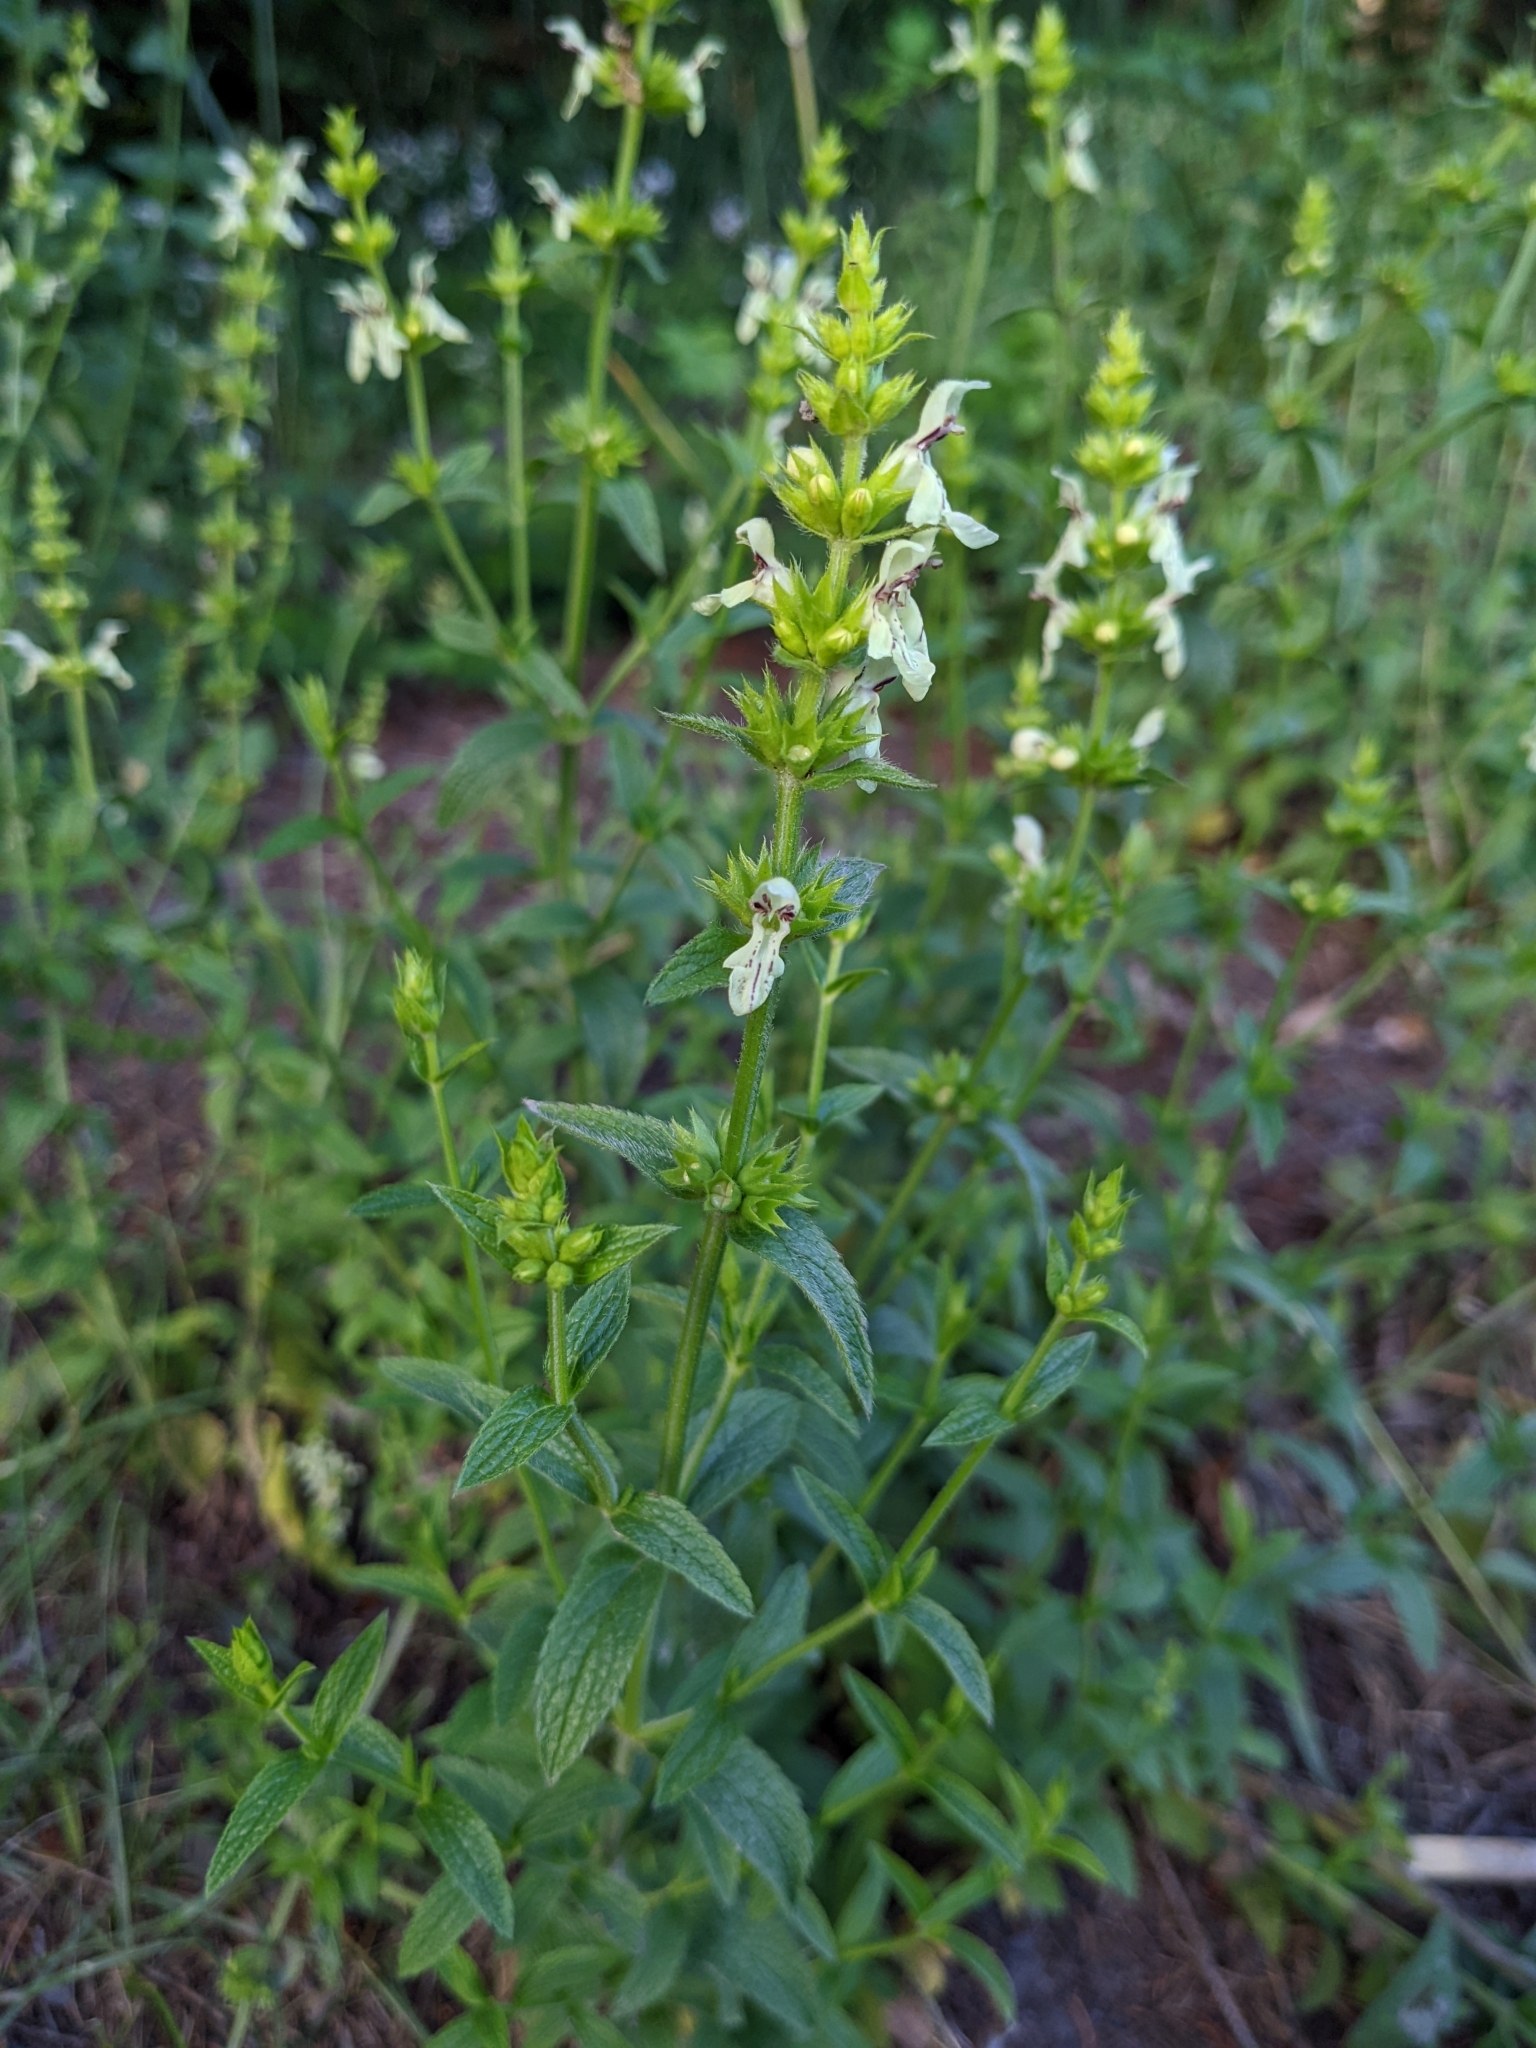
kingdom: Plantae
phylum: Tracheophyta
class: Magnoliopsida
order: Lamiales
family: Lamiaceae
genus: Stachys
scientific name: Stachys recta
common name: Perennial yellow-woundwort
